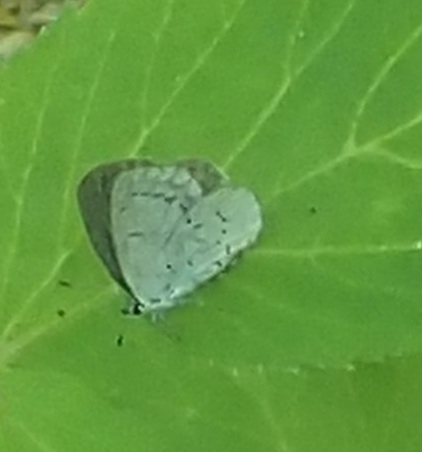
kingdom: Animalia
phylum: Arthropoda
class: Insecta
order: Lepidoptera
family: Lycaenidae
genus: Celastrina
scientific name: Celastrina argiolus
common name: Holly blue
